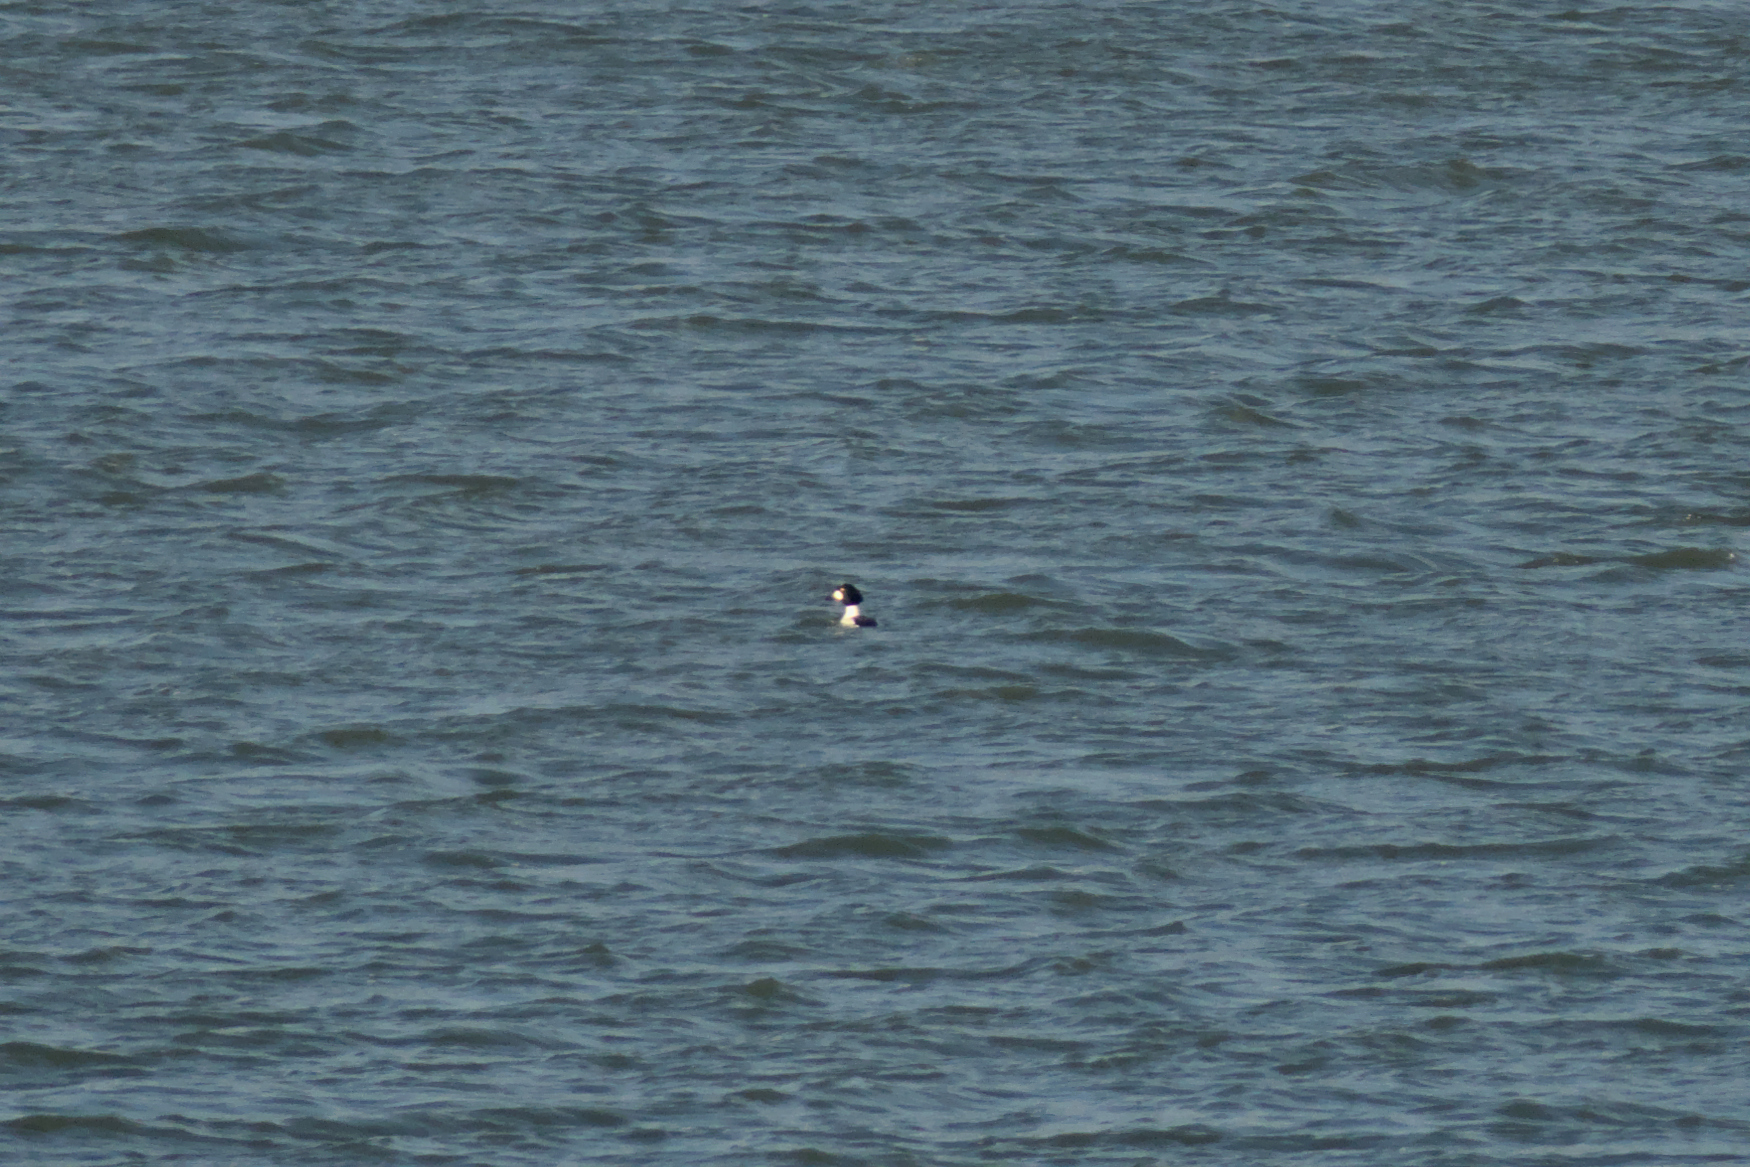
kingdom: Animalia
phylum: Chordata
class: Aves
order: Anseriformes
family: Anatidae
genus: Bucephala
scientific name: Bucephala clangula
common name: Common goldeneye
